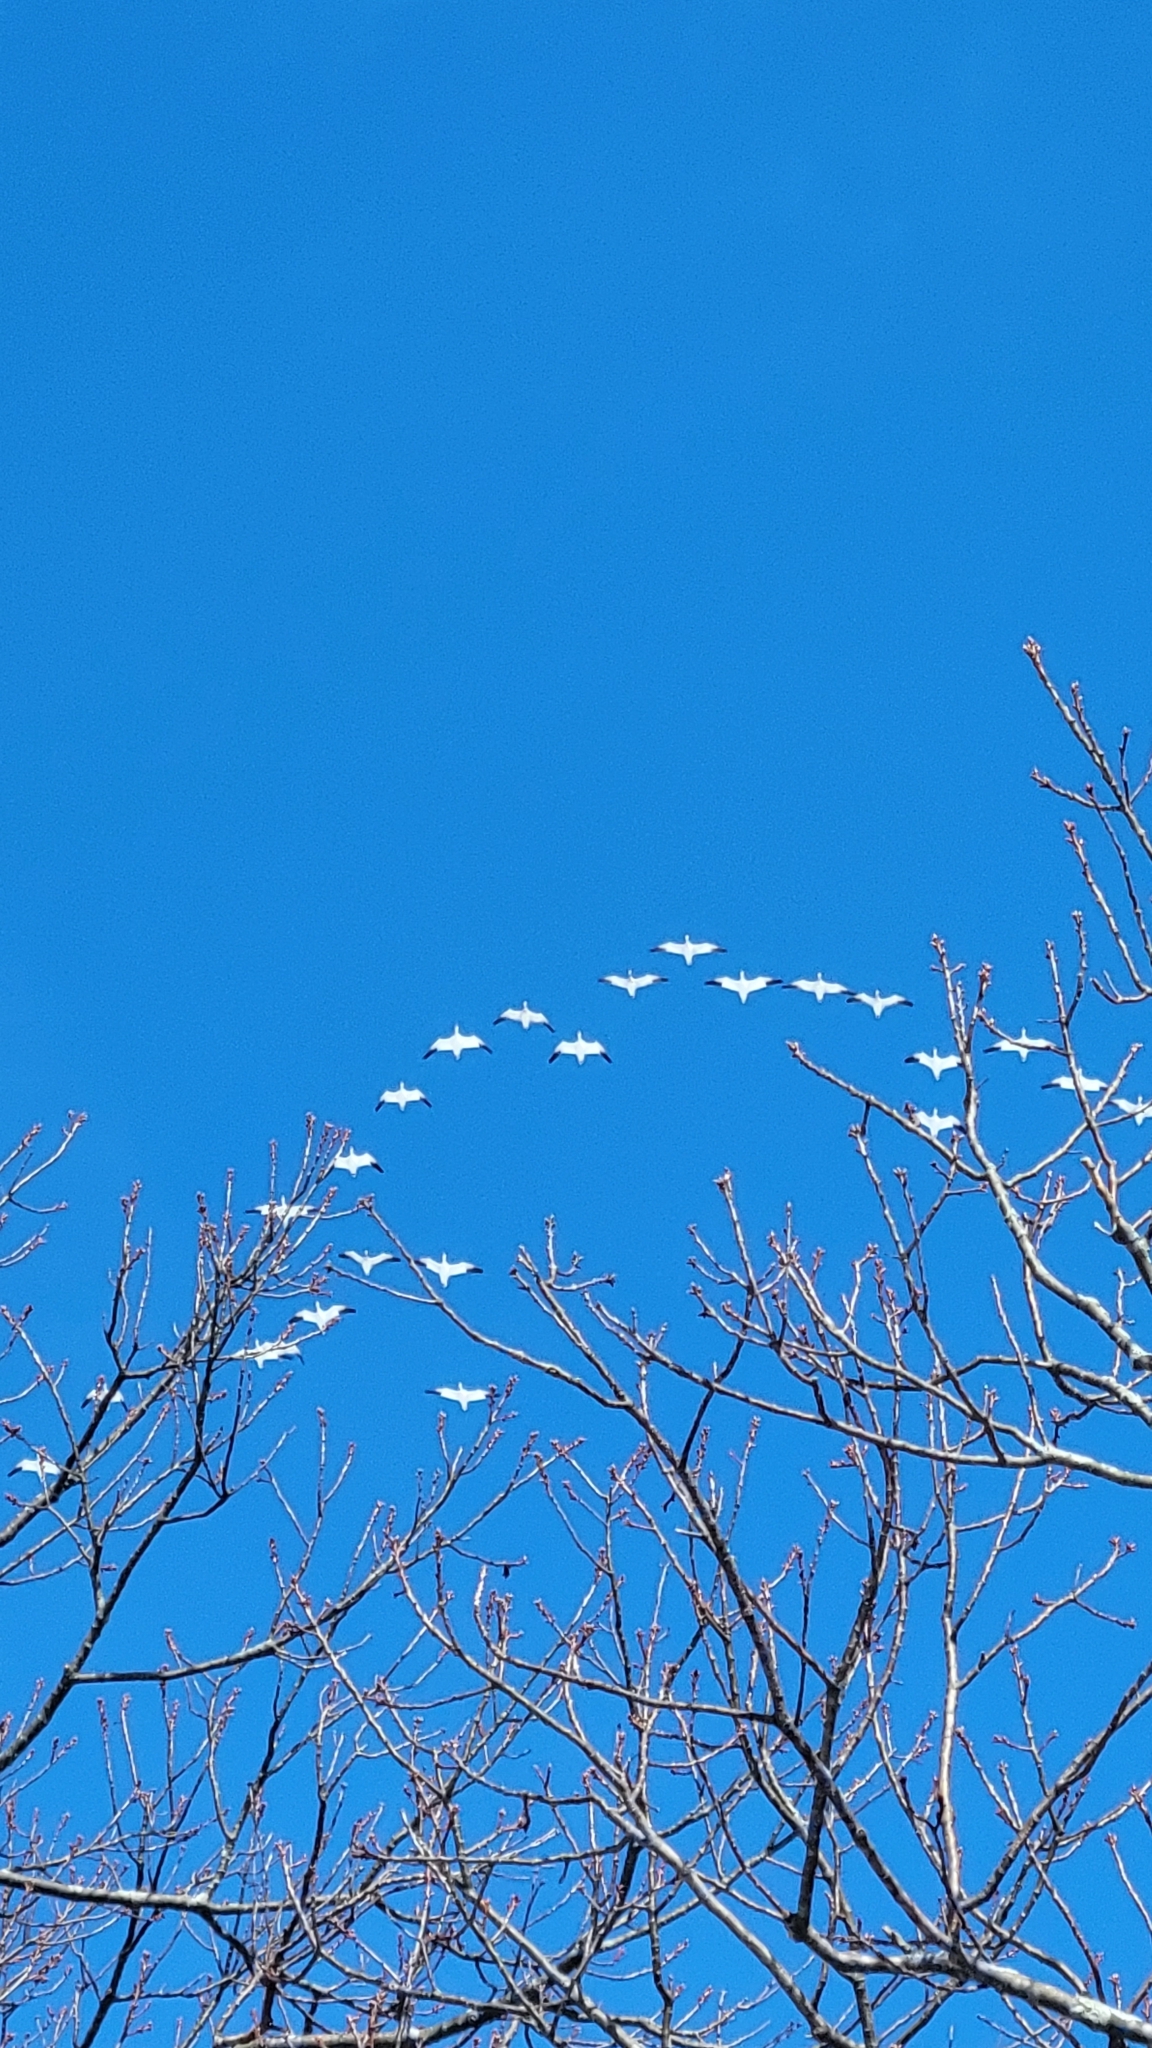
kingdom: Animalia
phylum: Chordata
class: Aves
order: Anseriformes
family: Anatidae
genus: Anser
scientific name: Anser caerulescens
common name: Snow goose
